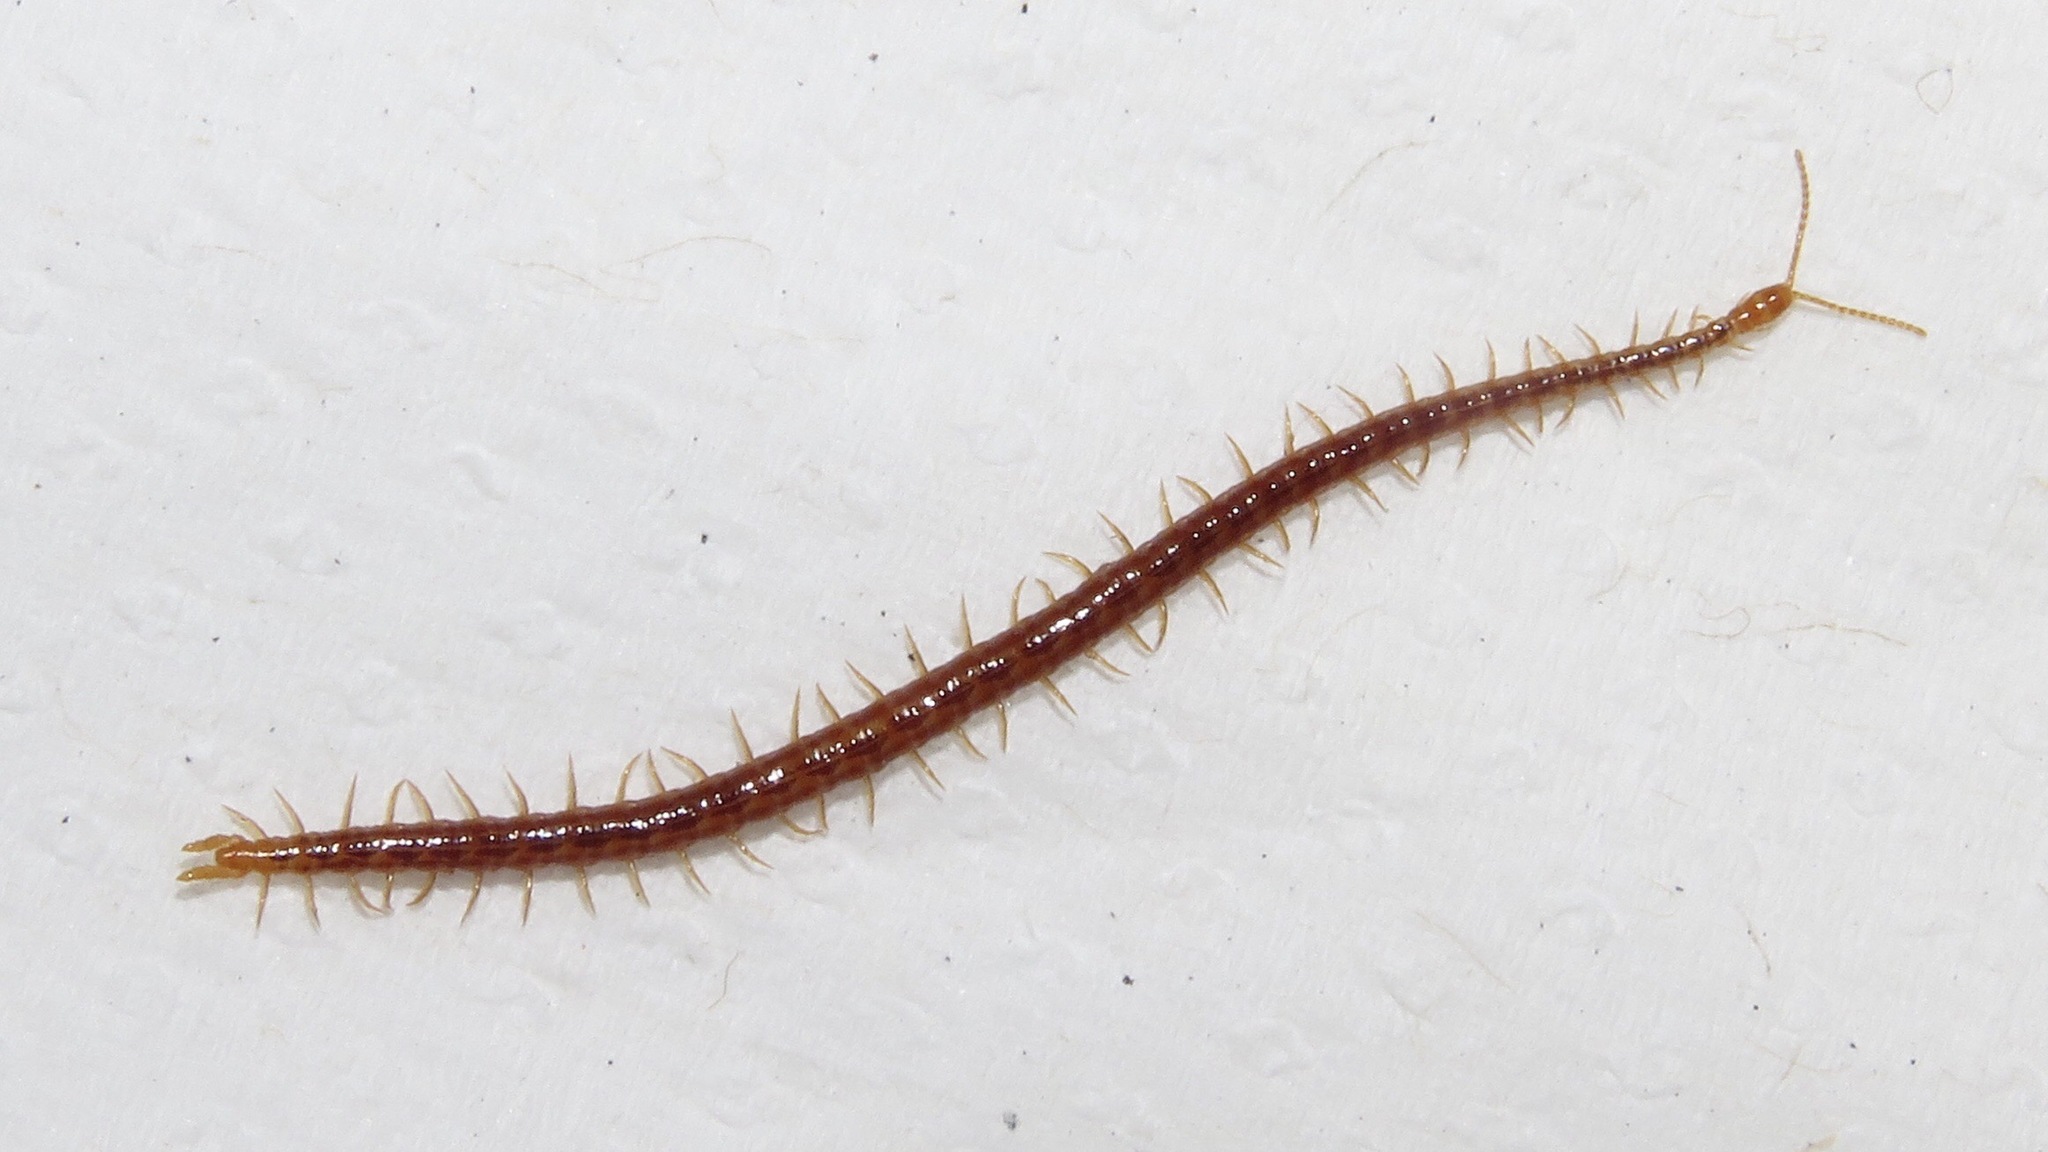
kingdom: Animalia
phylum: Arthropoda
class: Chilopoda
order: Geophilomorpha
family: Linotaeniidae
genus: Strigamia
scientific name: Strigamia branneri
